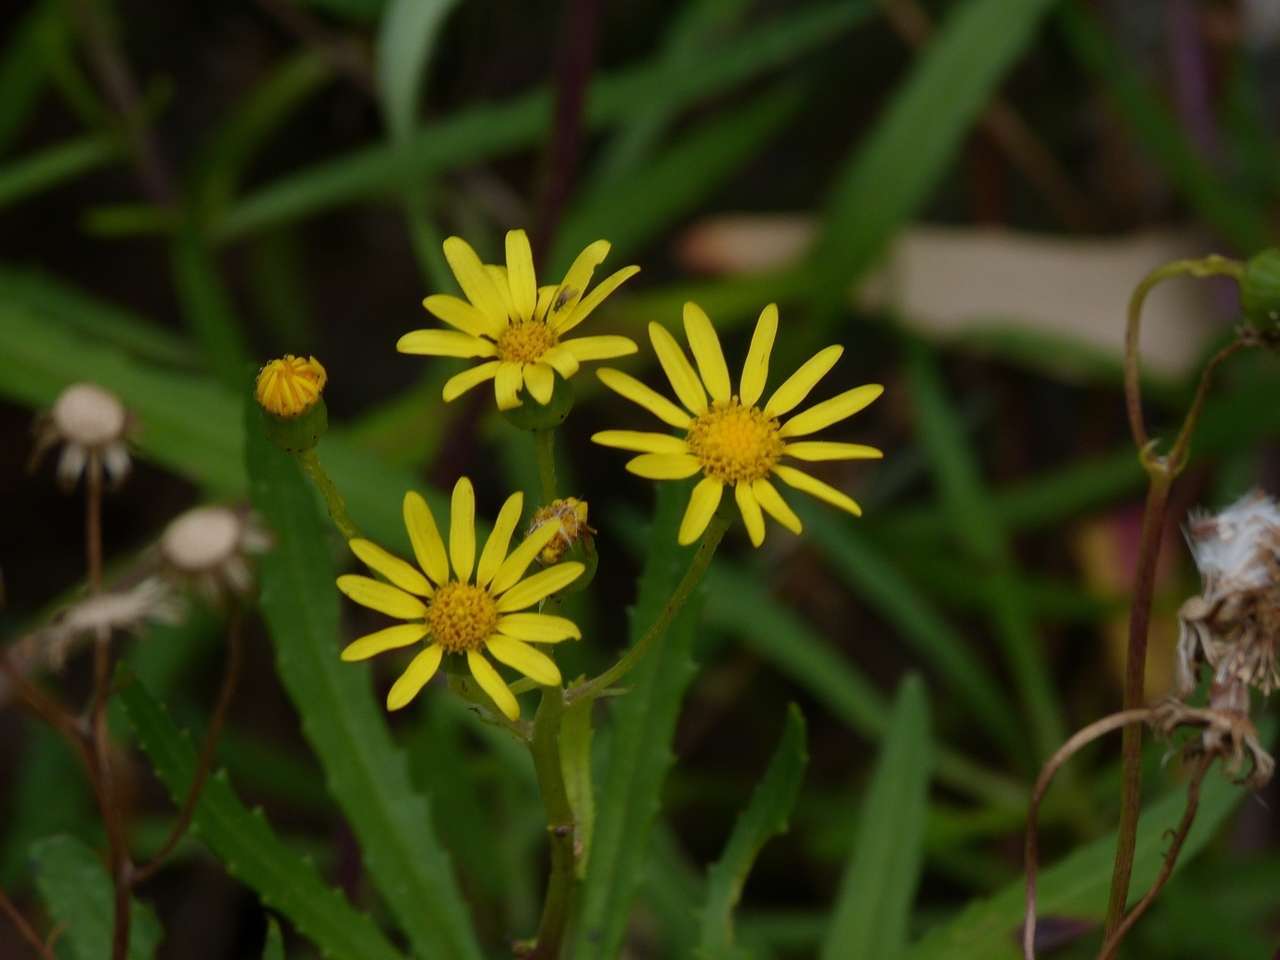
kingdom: Plantae
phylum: Tracheophyta
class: Magnoliopsida
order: Asterales
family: Asteraceae
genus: Senecio
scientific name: Senecio pinnatifolius
